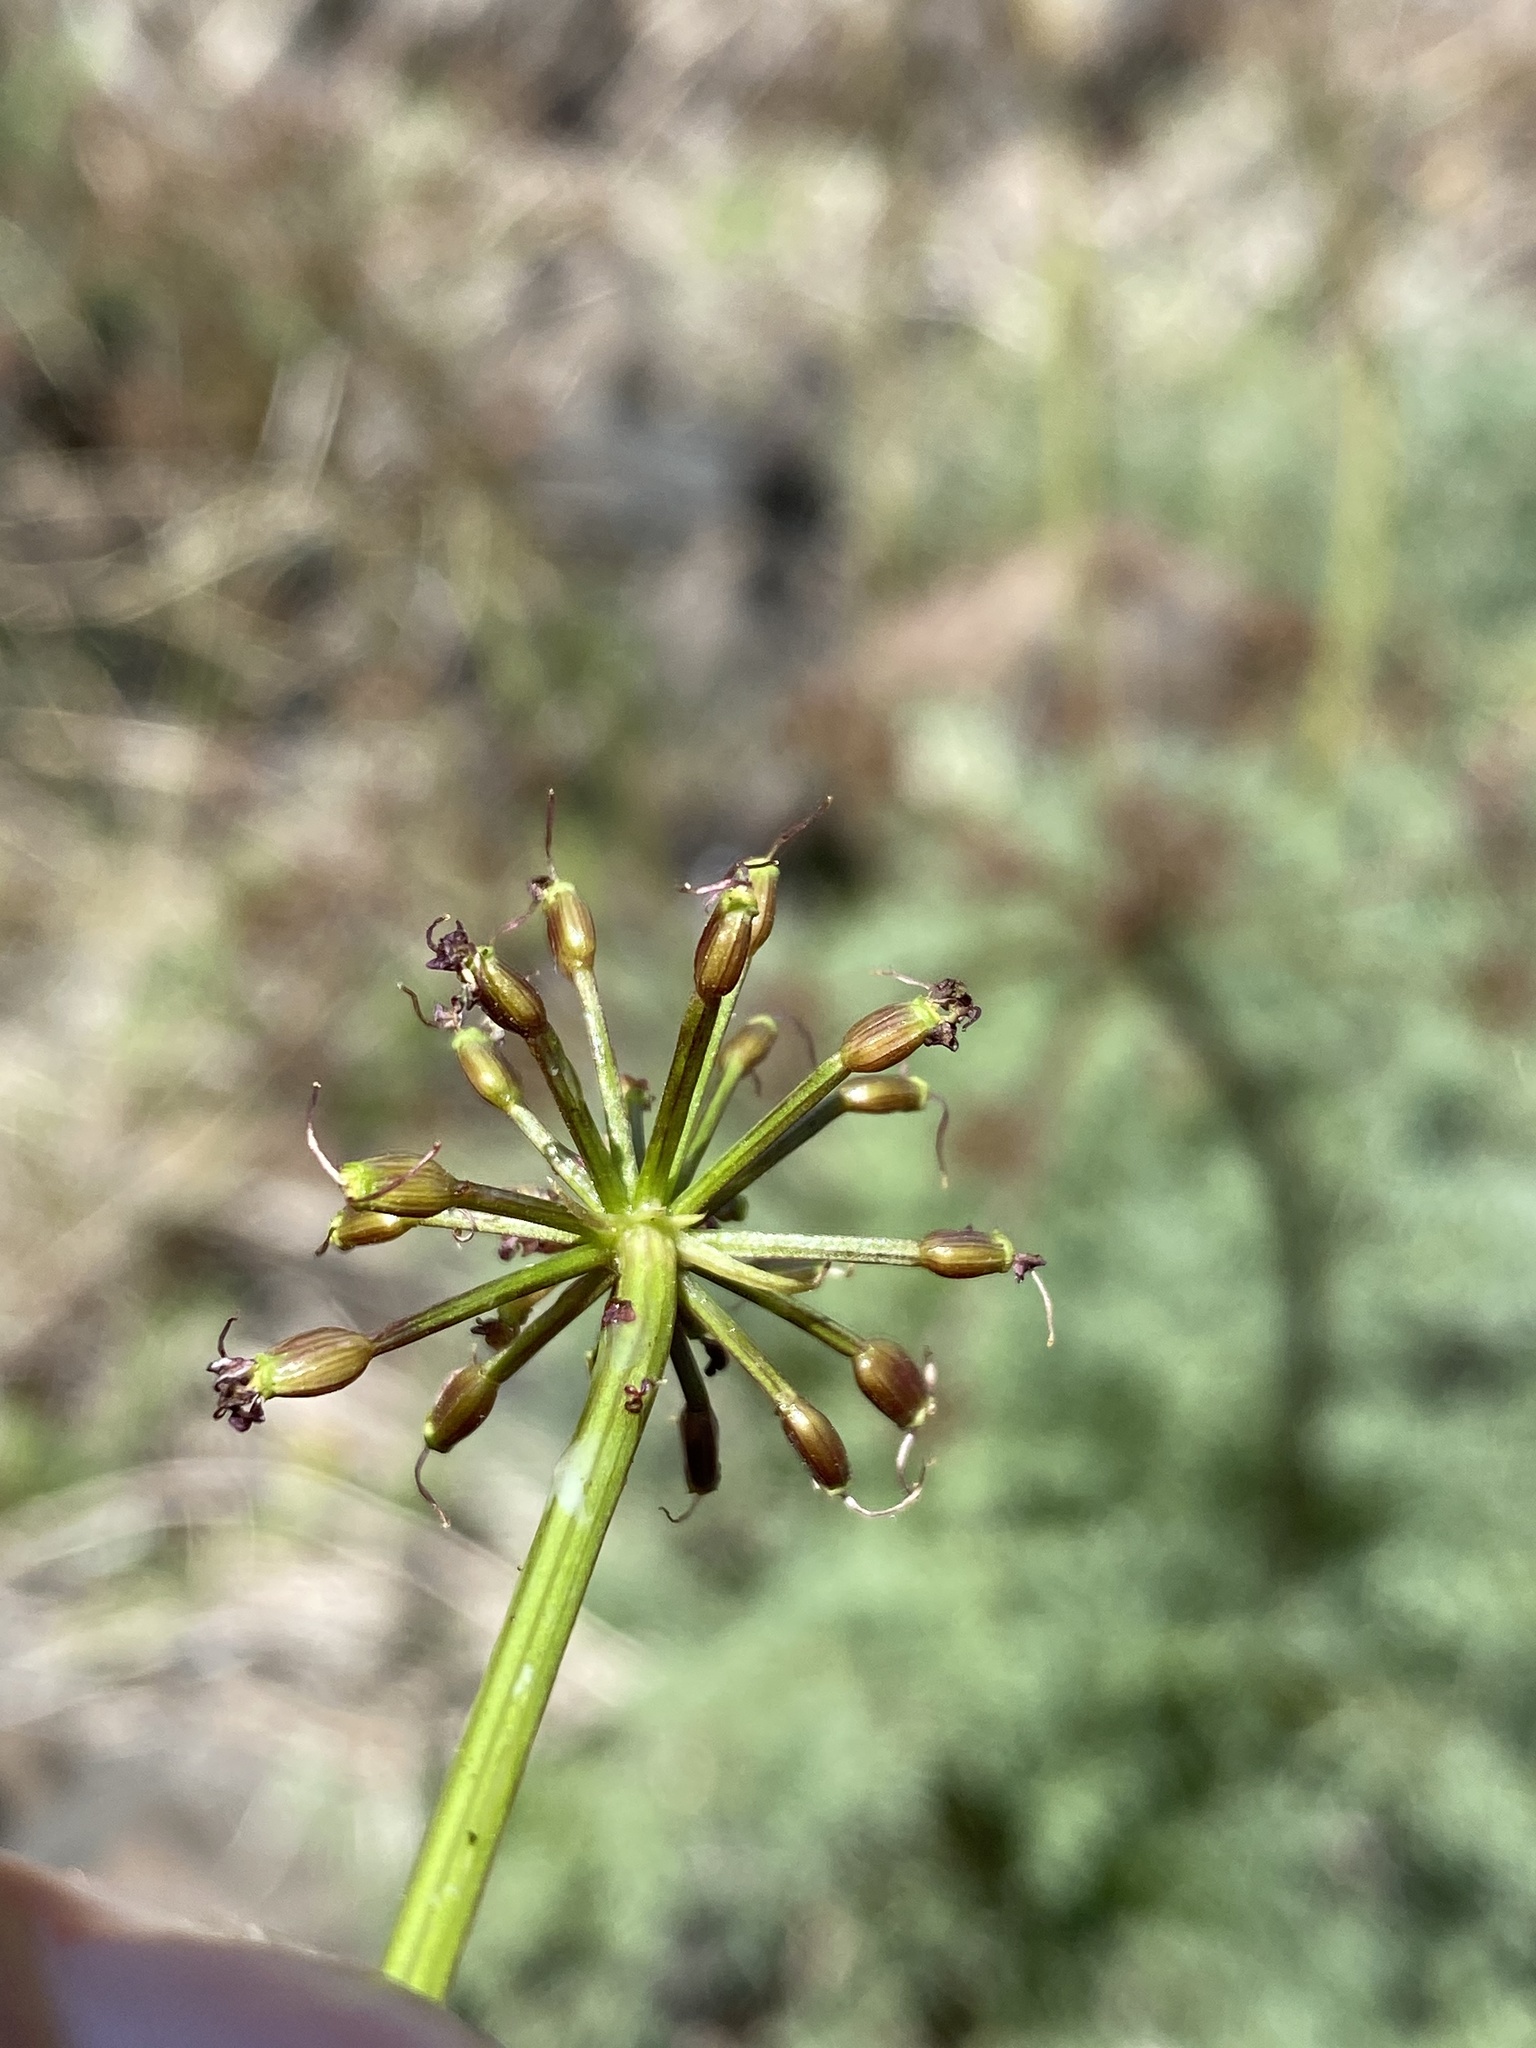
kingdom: Plantae
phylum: Tracheophyta
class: Magnoliopsida
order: Apiales
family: Apiaceae
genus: Lomatium
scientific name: Lomatium multifidum
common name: Carrot-leaved biscuitroot
